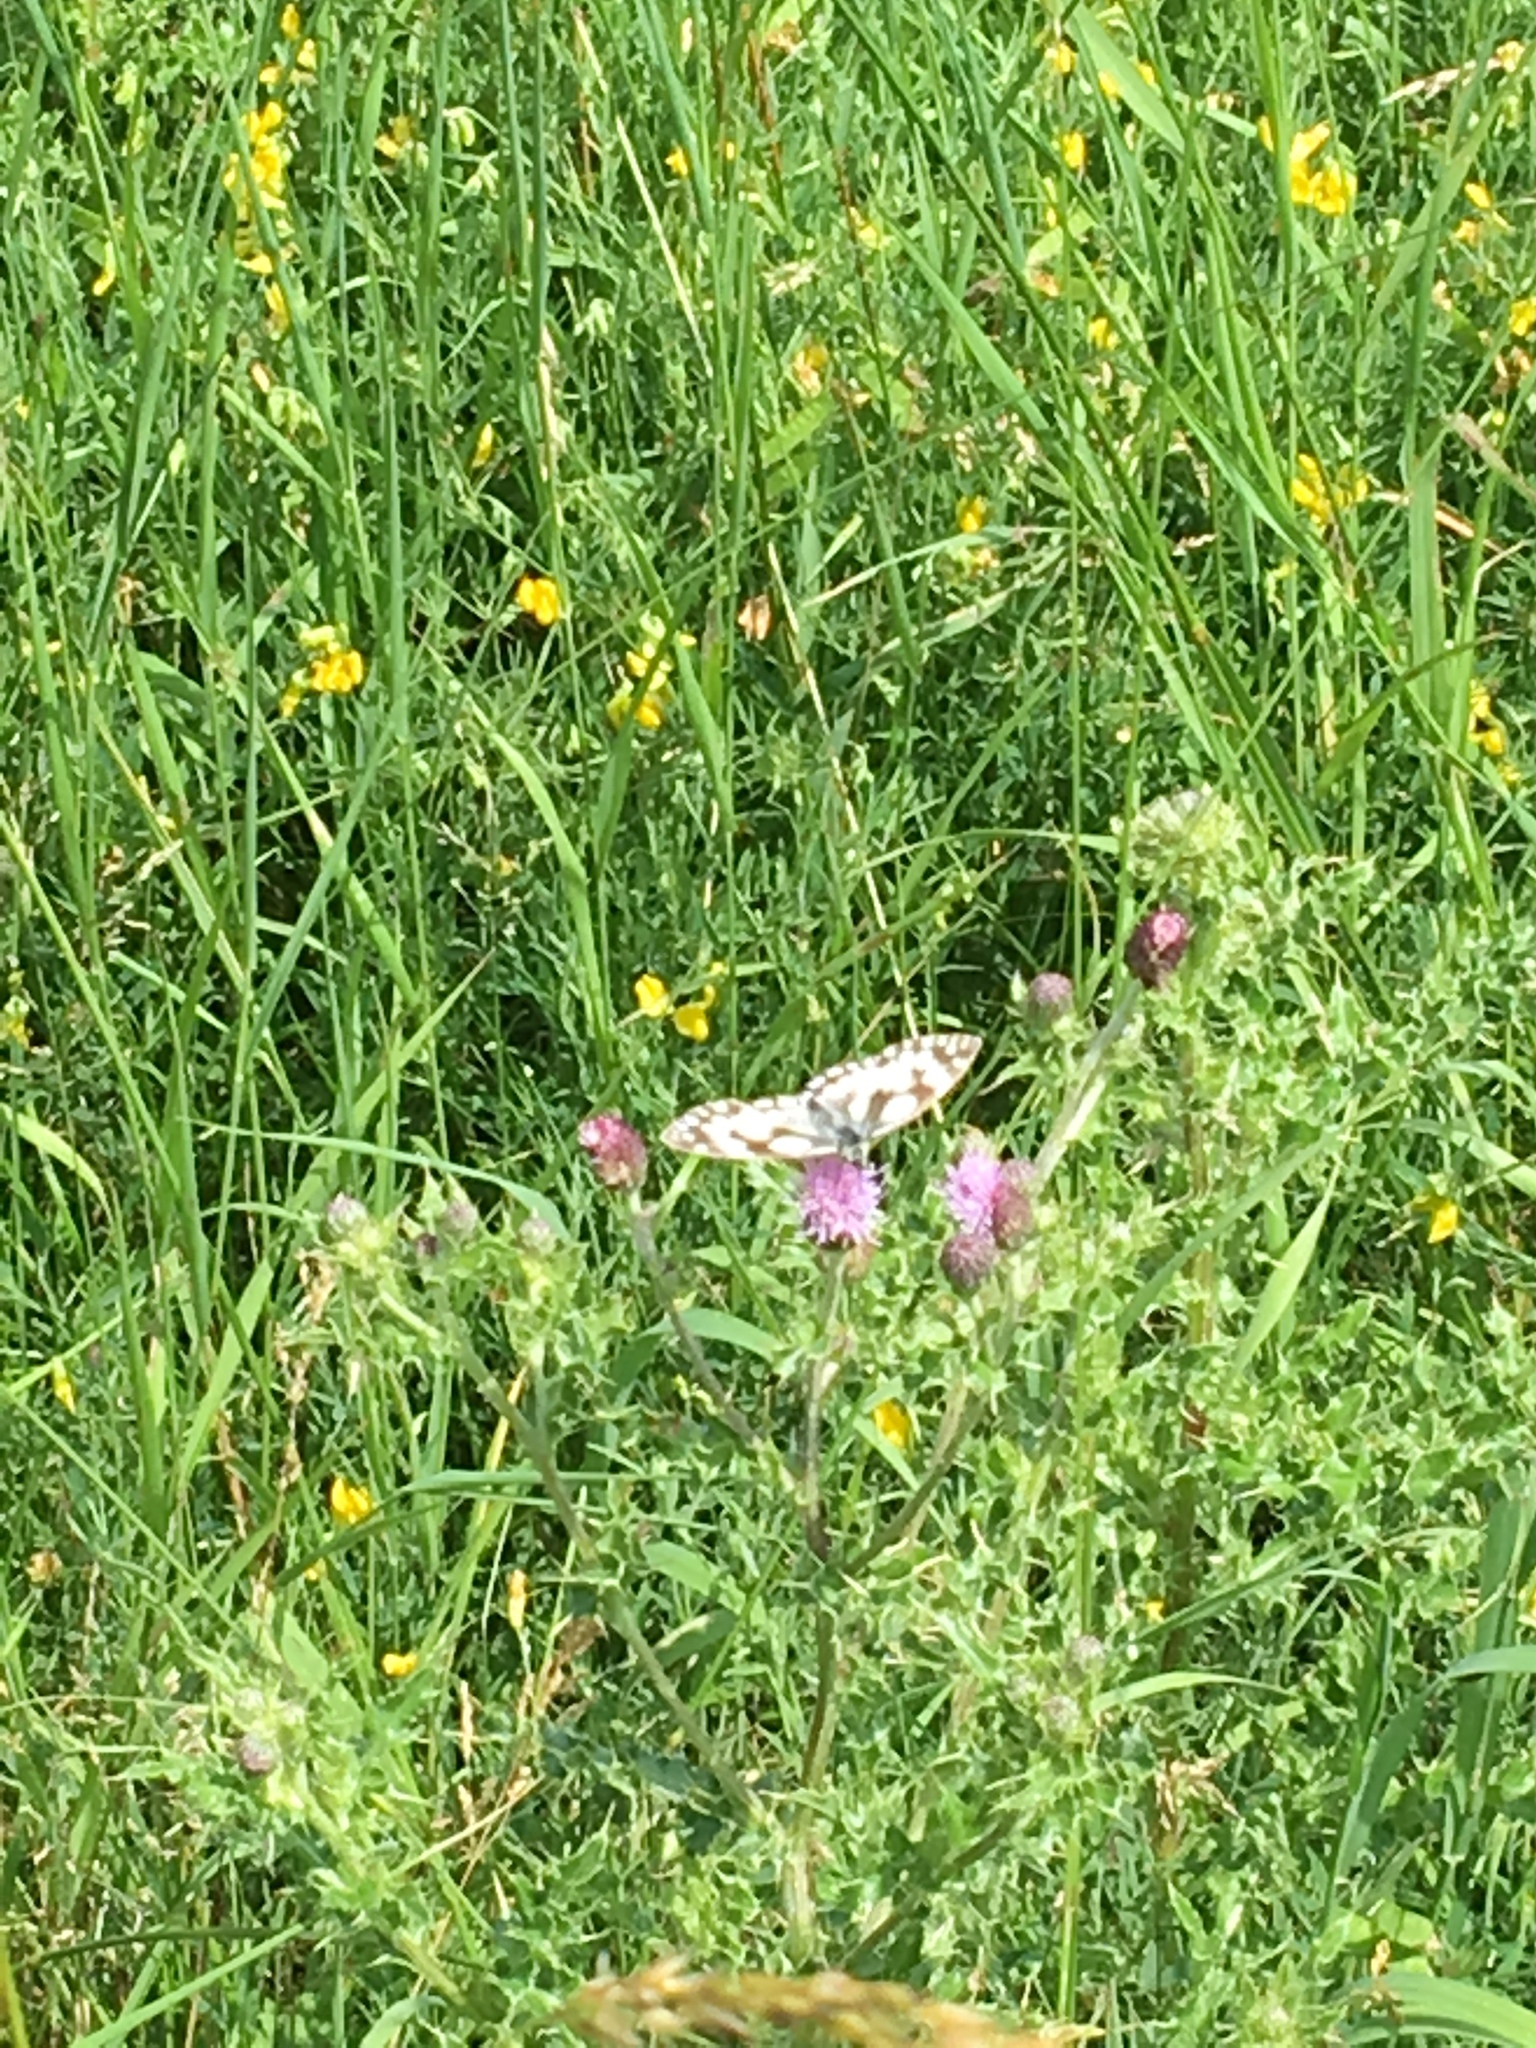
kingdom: Animalia
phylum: Arthropoda
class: Insecta
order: Lepidoptera
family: Nymphalidae
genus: Melanargia
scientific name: Melanargia galathea
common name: Marbled white
